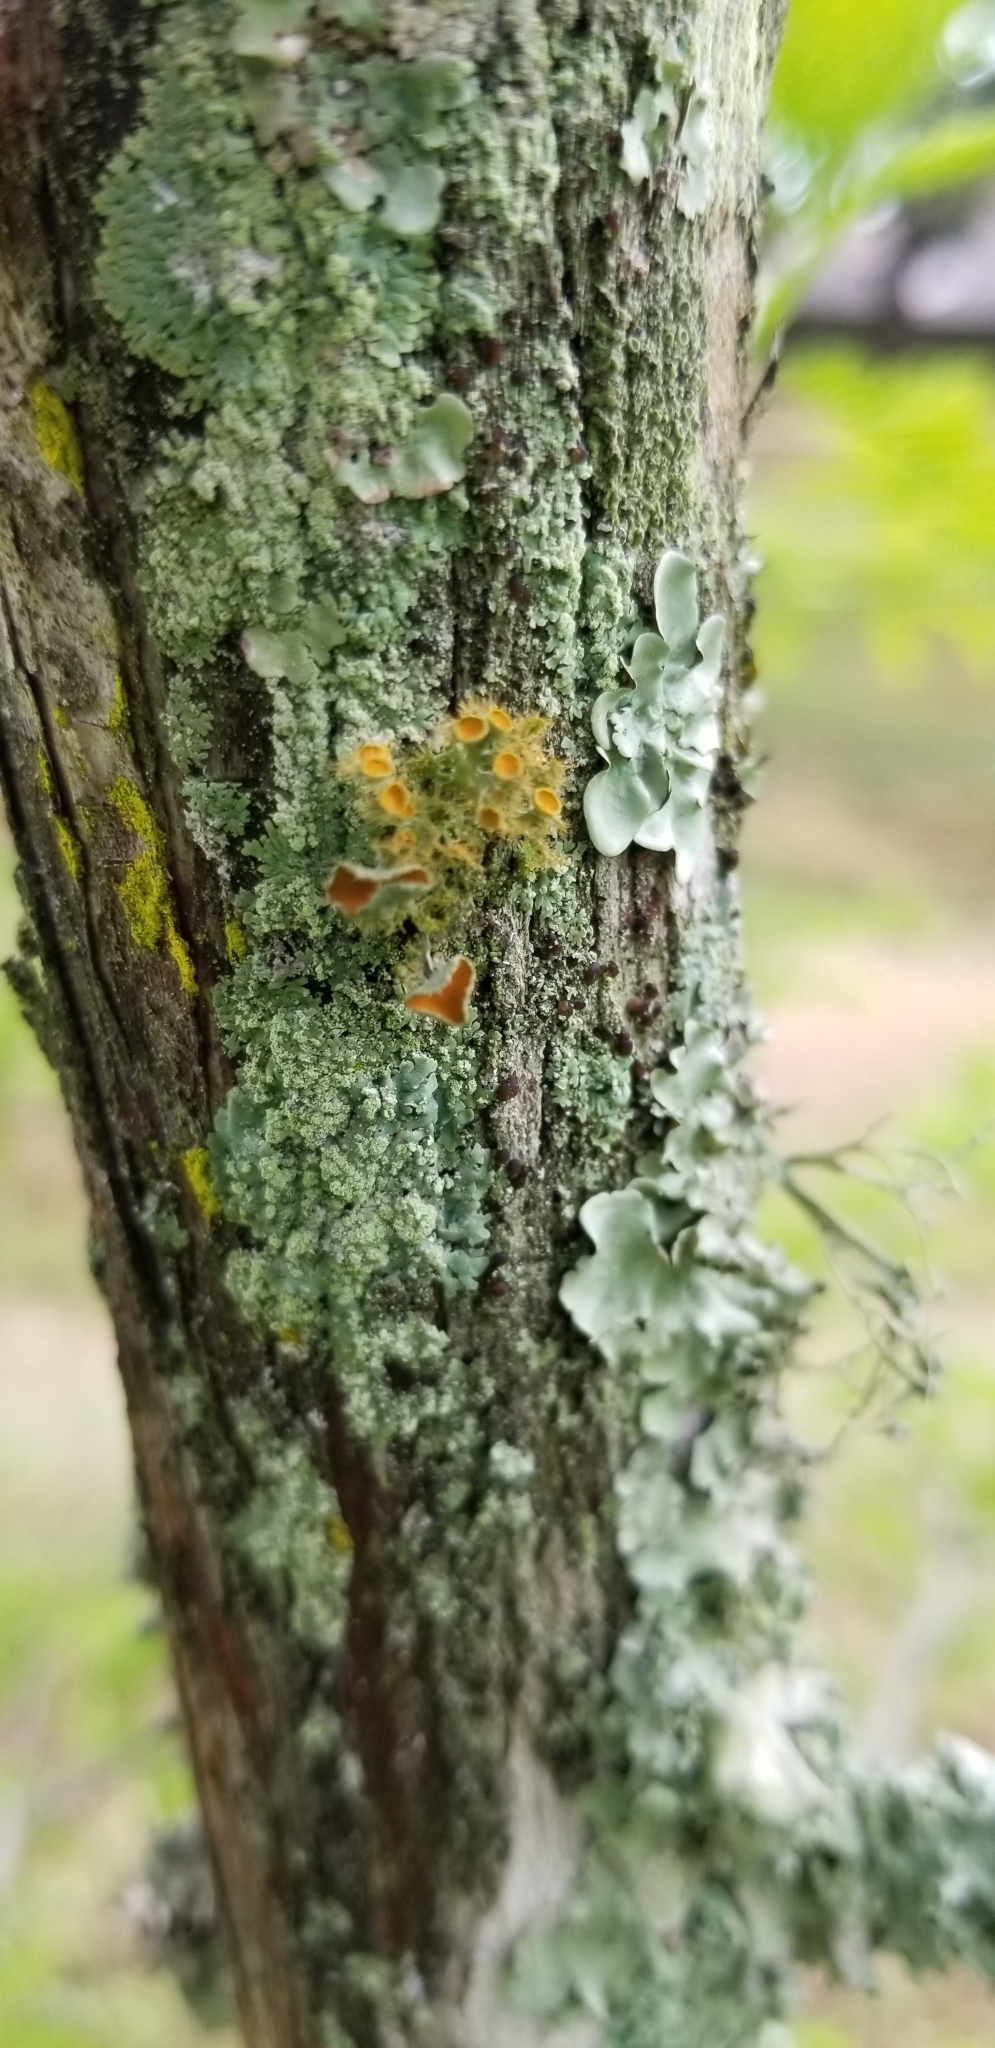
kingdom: Fungi
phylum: Ascomycota
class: Lecanoromycetes
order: Teloschistales
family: Teloschistaceae
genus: Niorma
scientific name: Niorma chrysophthalma
